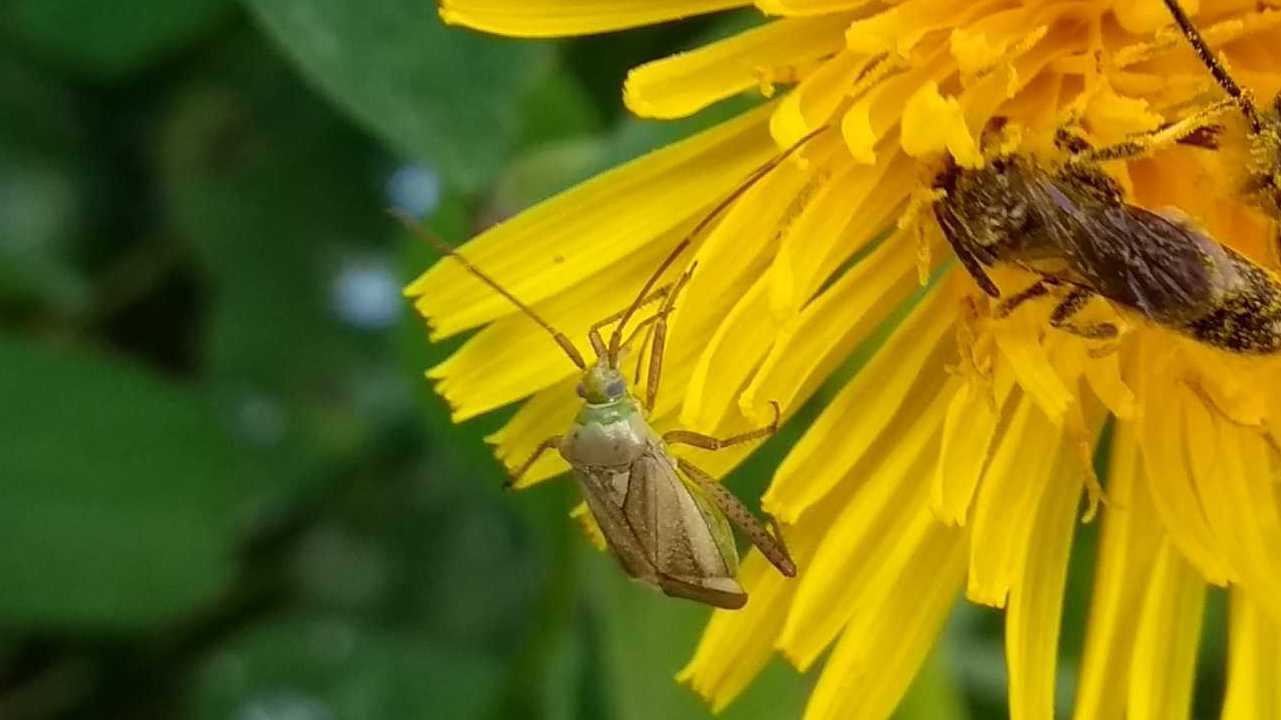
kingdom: Animalia
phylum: Arthropoda
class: Insecta
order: Hemiptera
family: Miridae
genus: Adelphocoris
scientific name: Adelphocoris lineolatus
